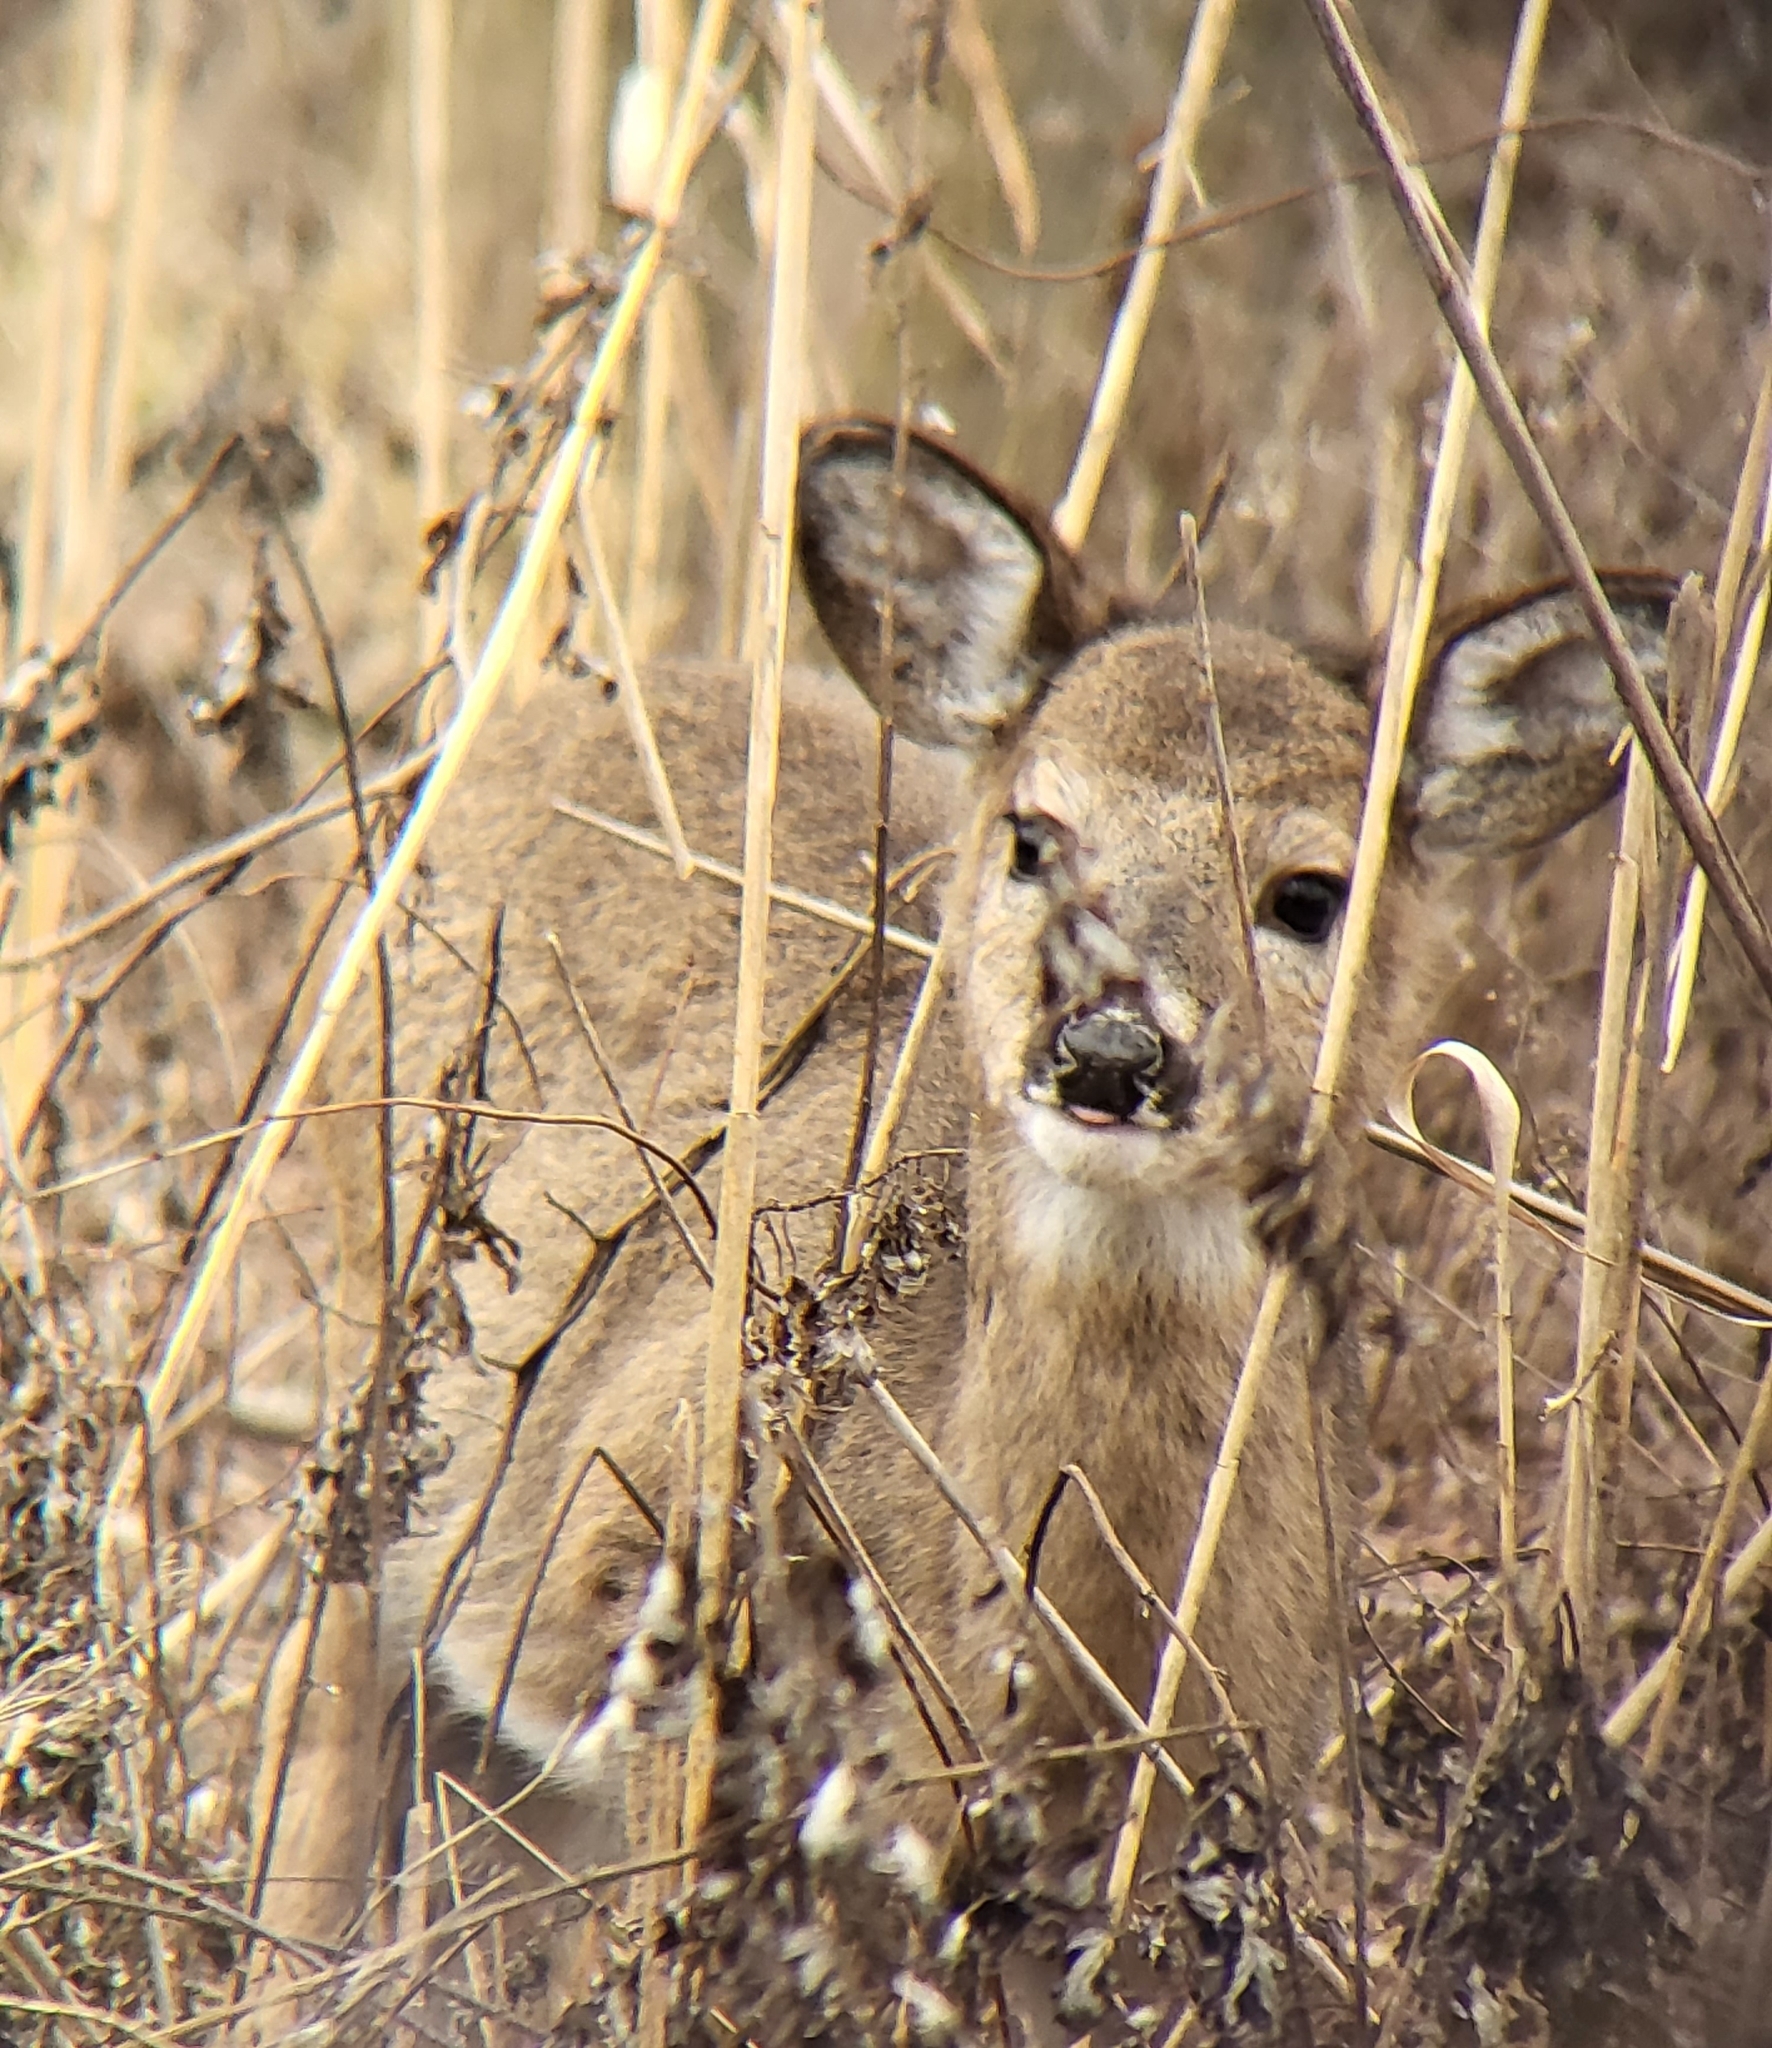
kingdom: Animalia
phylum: Chordata
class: Mammalia
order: Artiodactyla
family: Cervidae
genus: Odocoileus
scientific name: Odocoileus virginianus
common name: White-tailed deer
